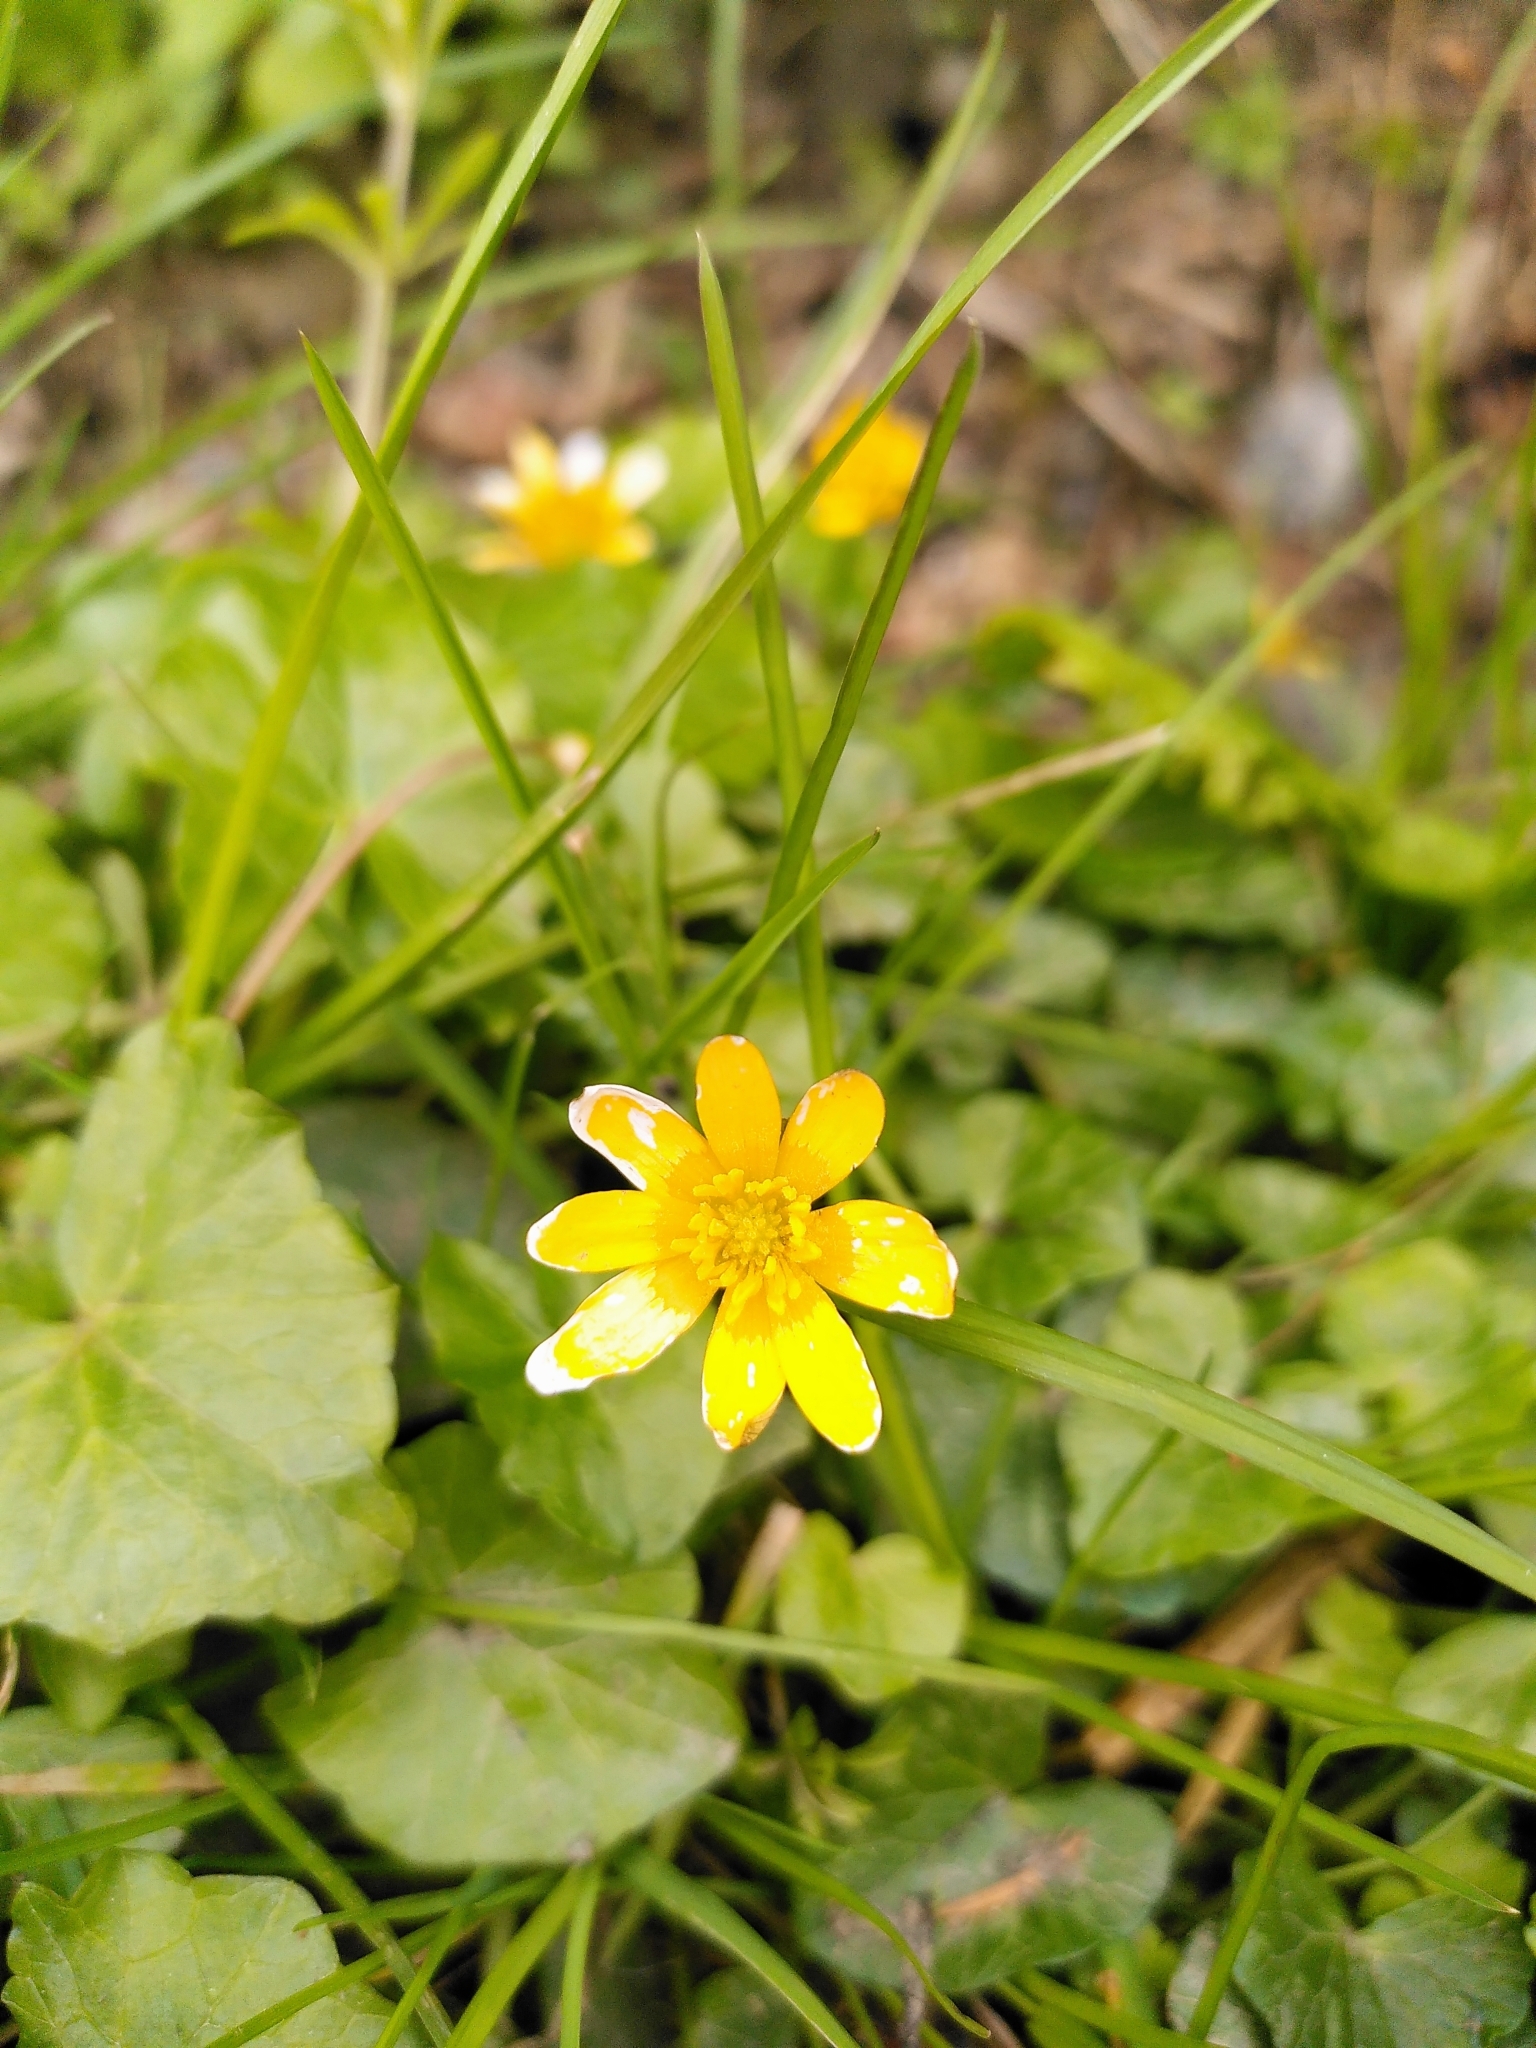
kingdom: Plantae
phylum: Tracheophyta
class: Magnoliopsida
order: Ranunculales
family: Ranunculaceae
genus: Ficaria
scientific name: Ficaria verna
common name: Lesser celandine
